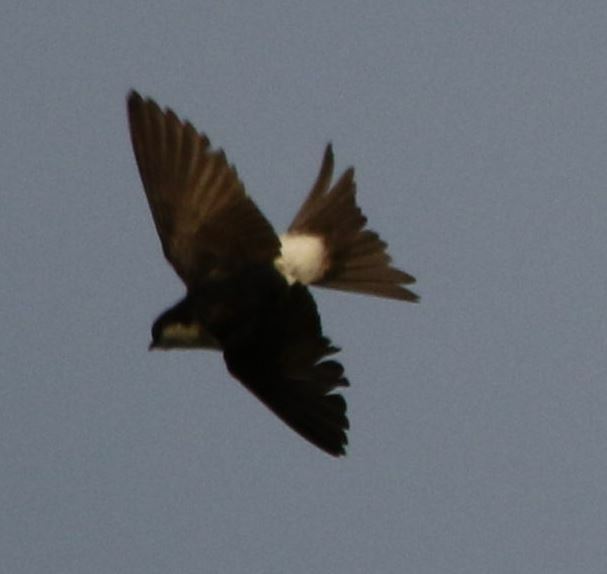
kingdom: Animalia
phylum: Chordata
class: Aves
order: Passeriformes
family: Hirundinidae
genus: Delichon
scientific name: Delichon urbicum
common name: Common house martin
